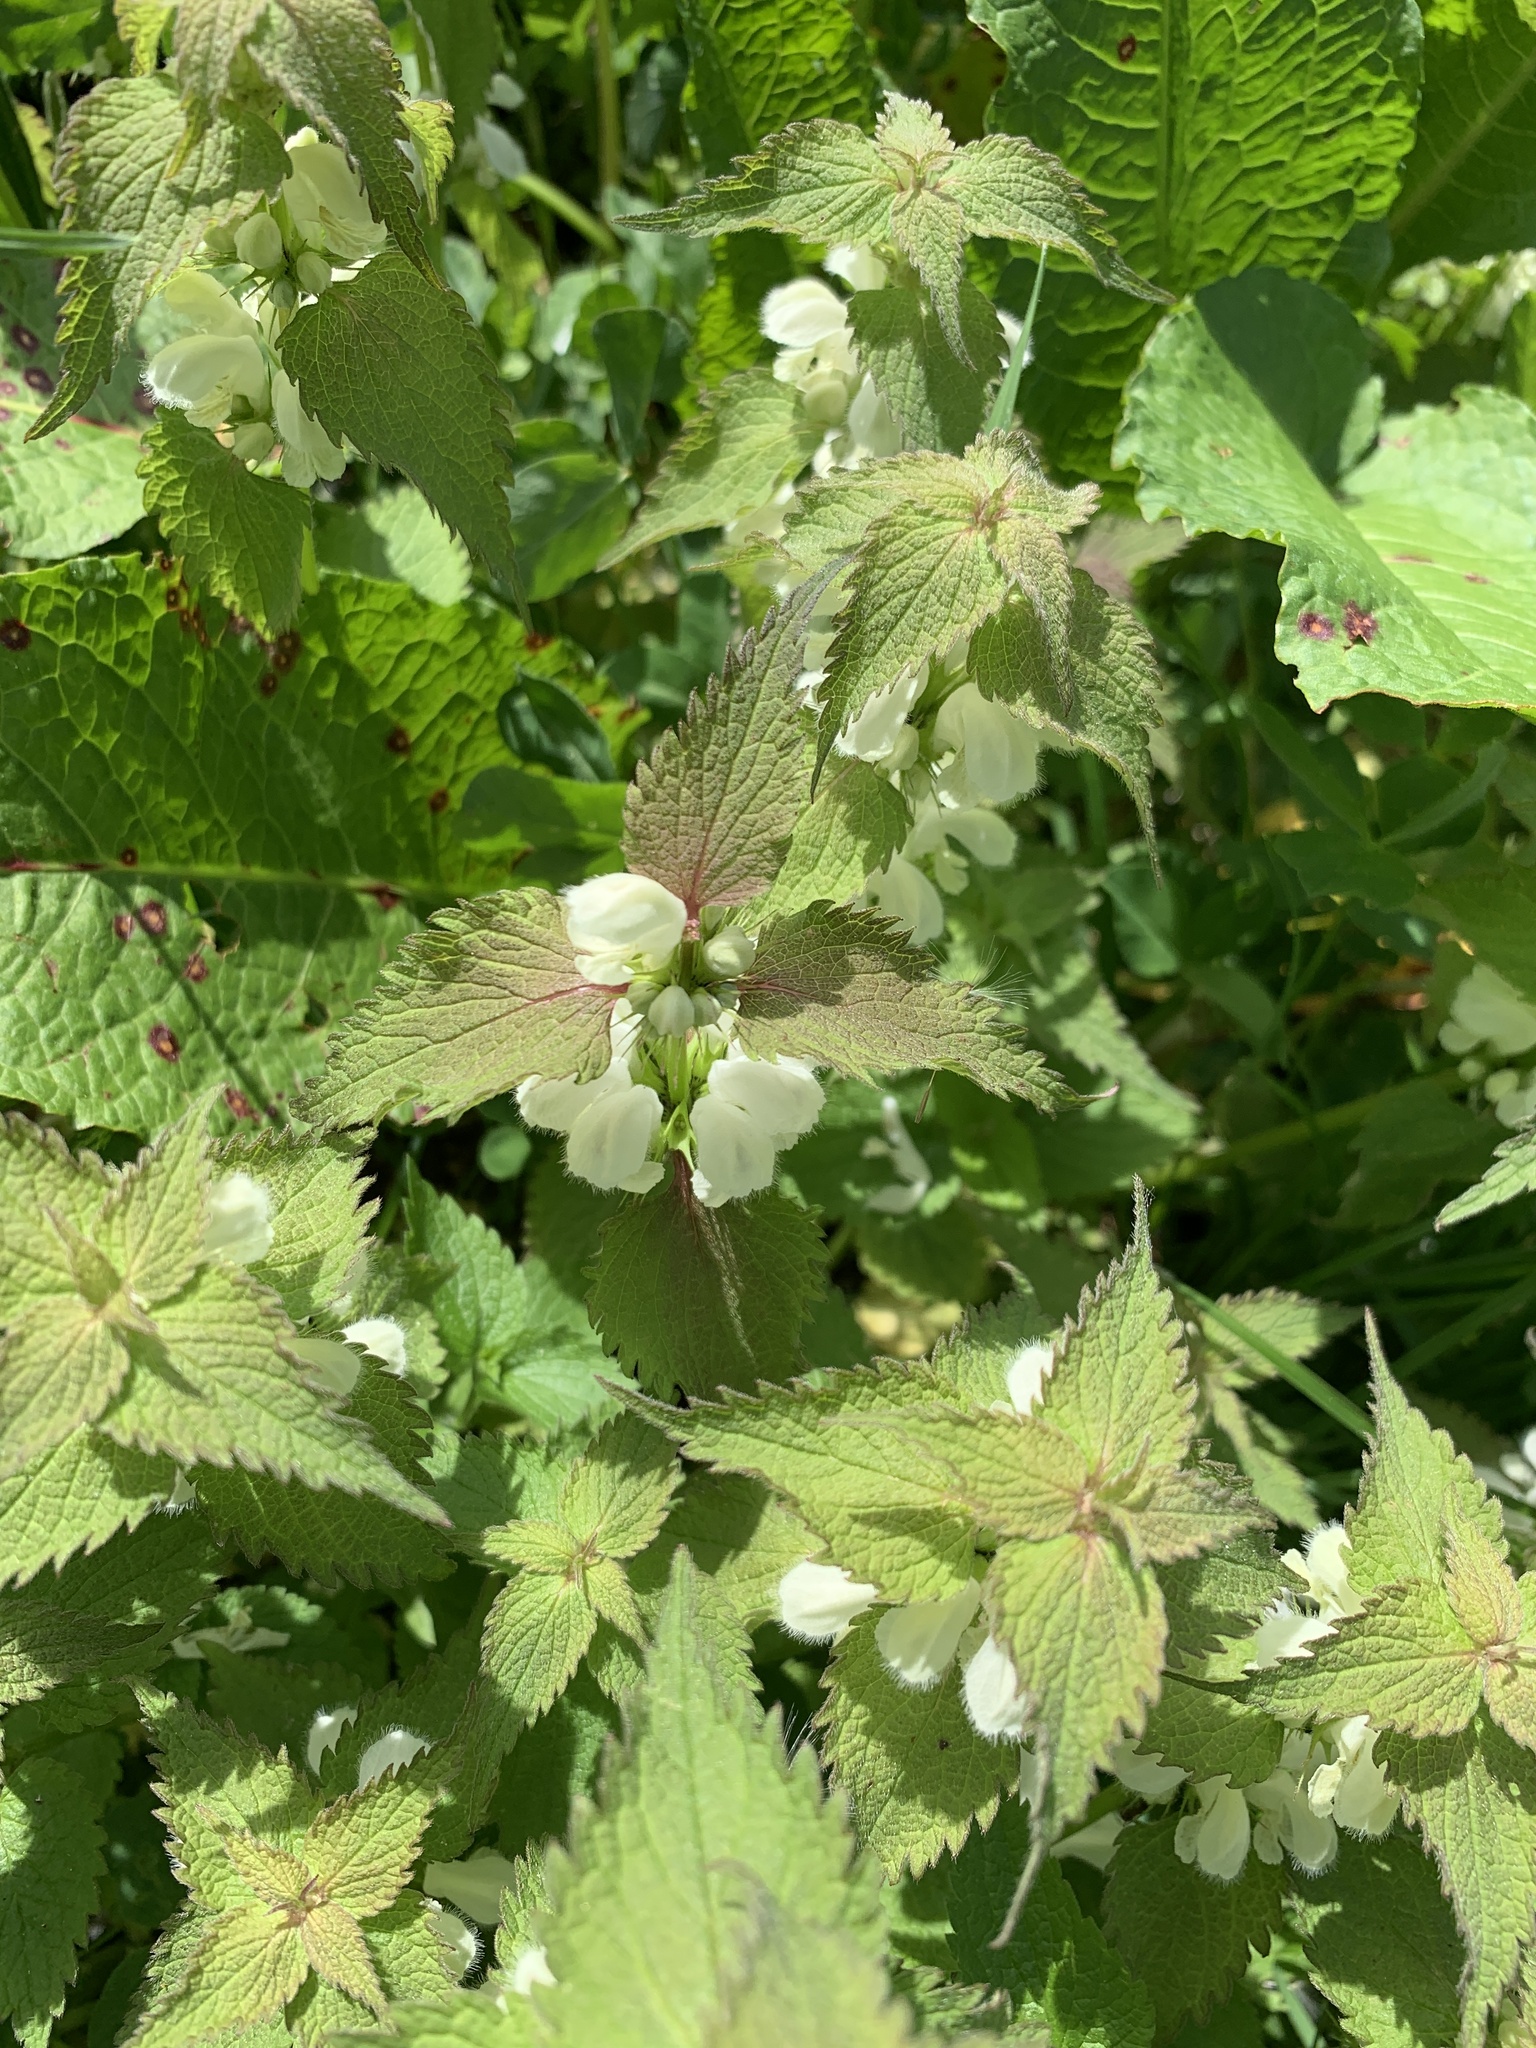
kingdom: Plantae
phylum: Tracheophyta
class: Magnoliopsida
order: Lamiales
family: Lamiaceae
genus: Lamium
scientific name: Lamium album
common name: White dead-nettle
